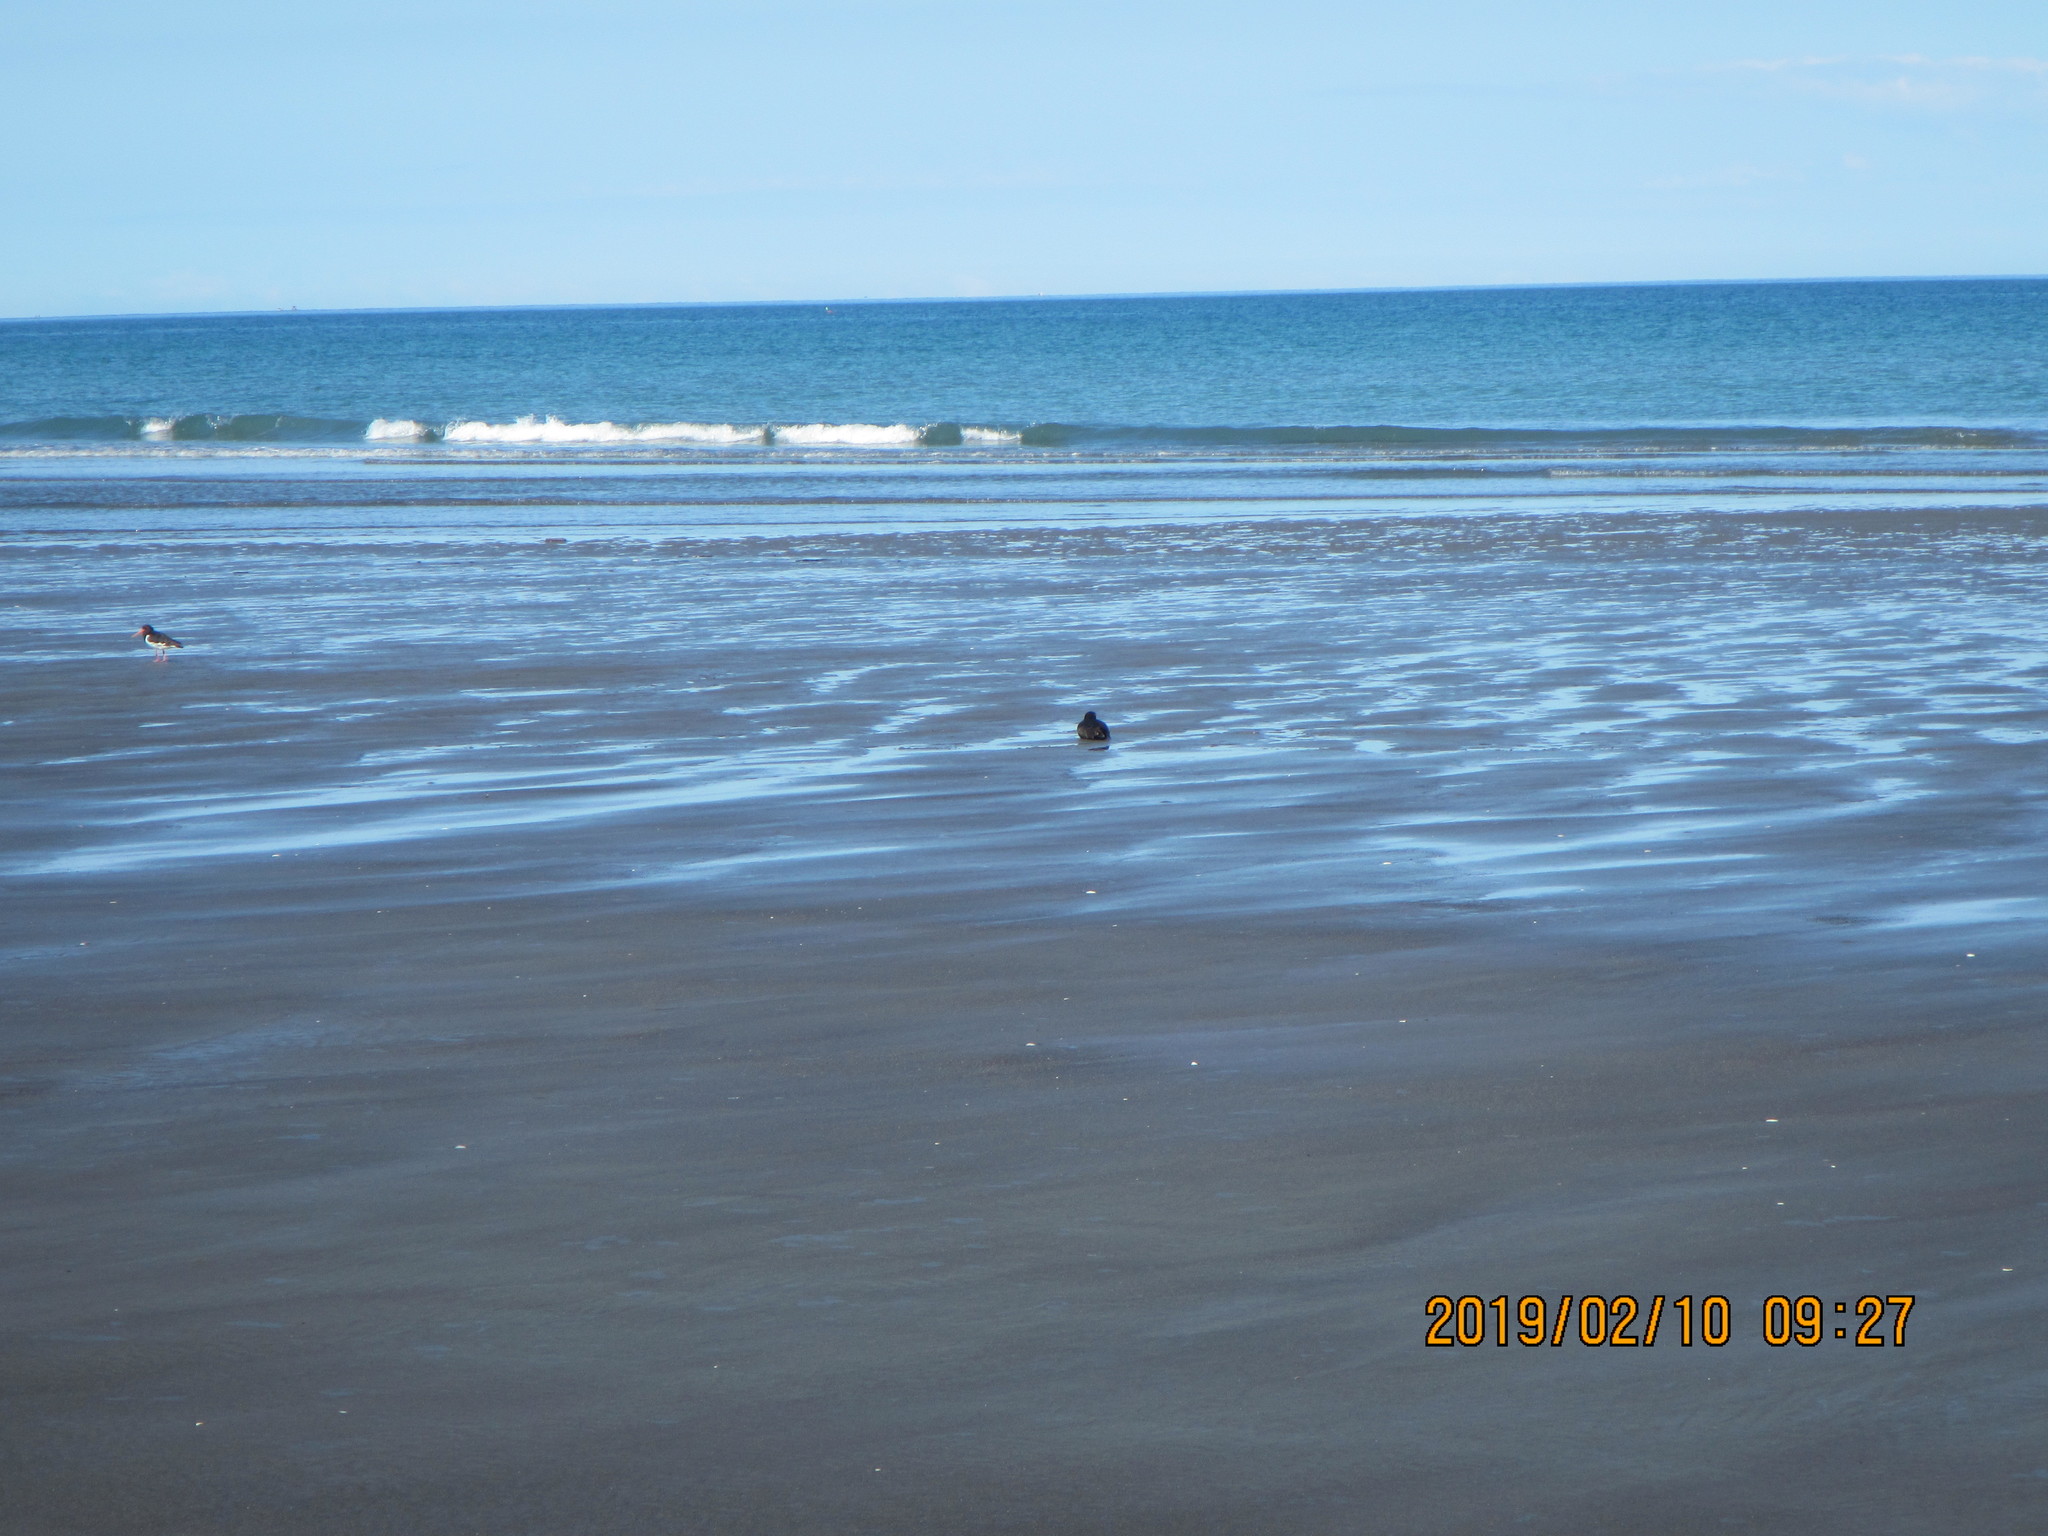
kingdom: Animalia
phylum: Chordata
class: Aves
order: Charadriiformes
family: Haematopodidae
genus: Haematopus
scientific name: Haematopus unicolor
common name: Variable oystercatcher
